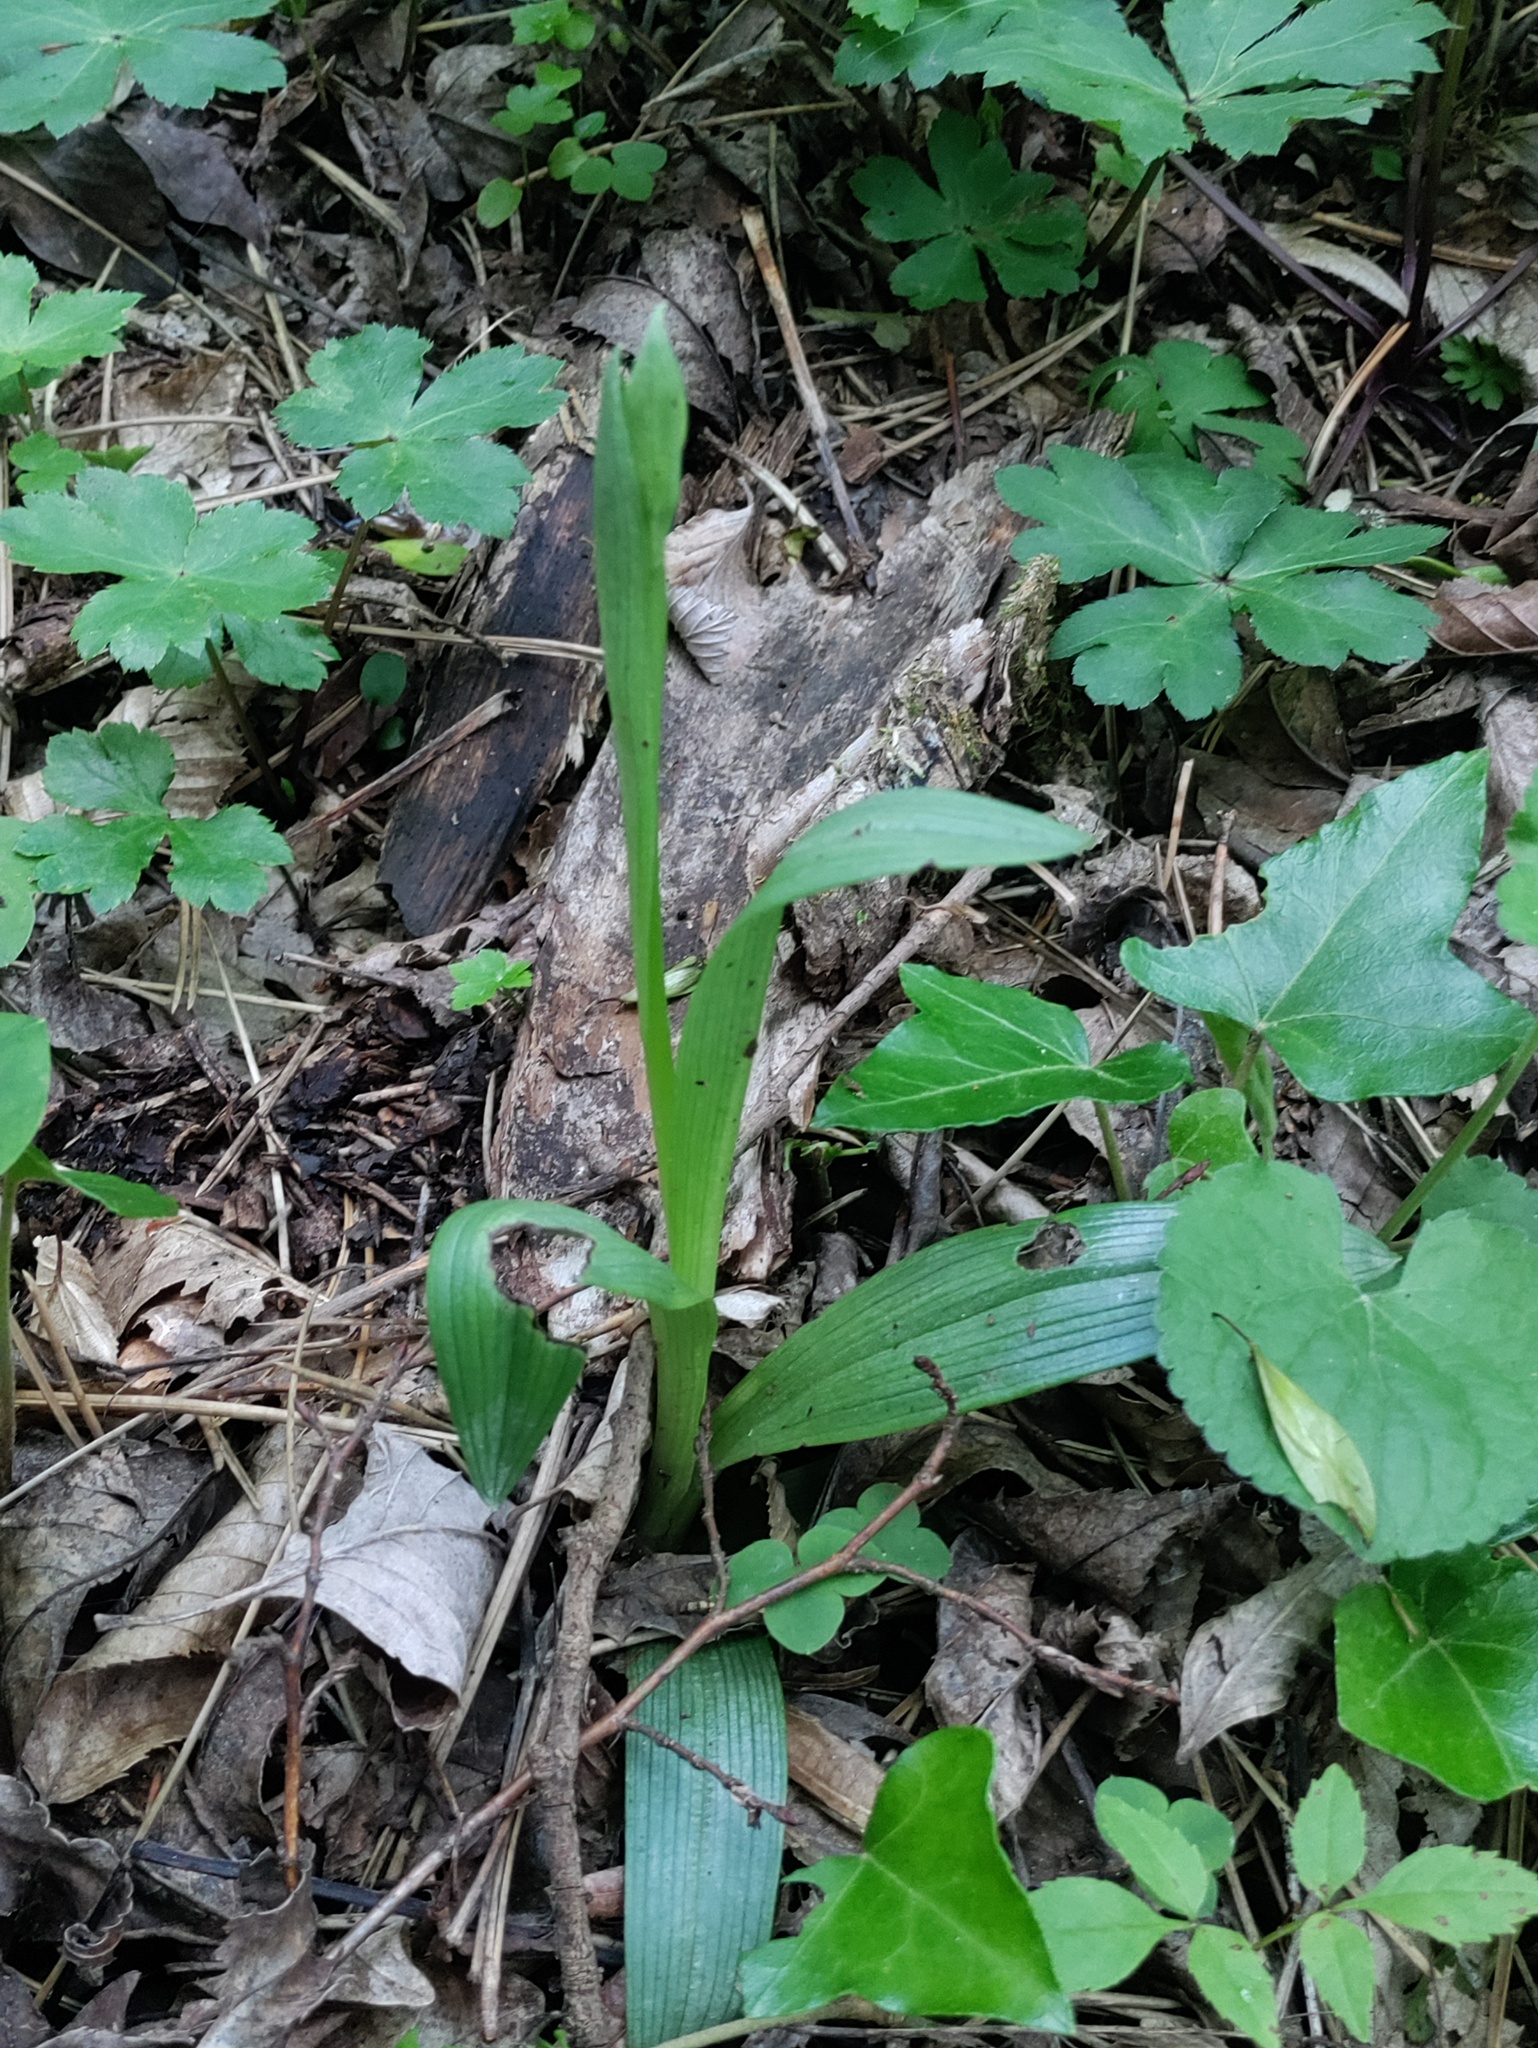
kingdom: Plantae
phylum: Tracheophyta
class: Liliopsida
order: Asparagales
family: Orchidaceae
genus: Himantoglossum
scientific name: Himantoglossum adriaticum
